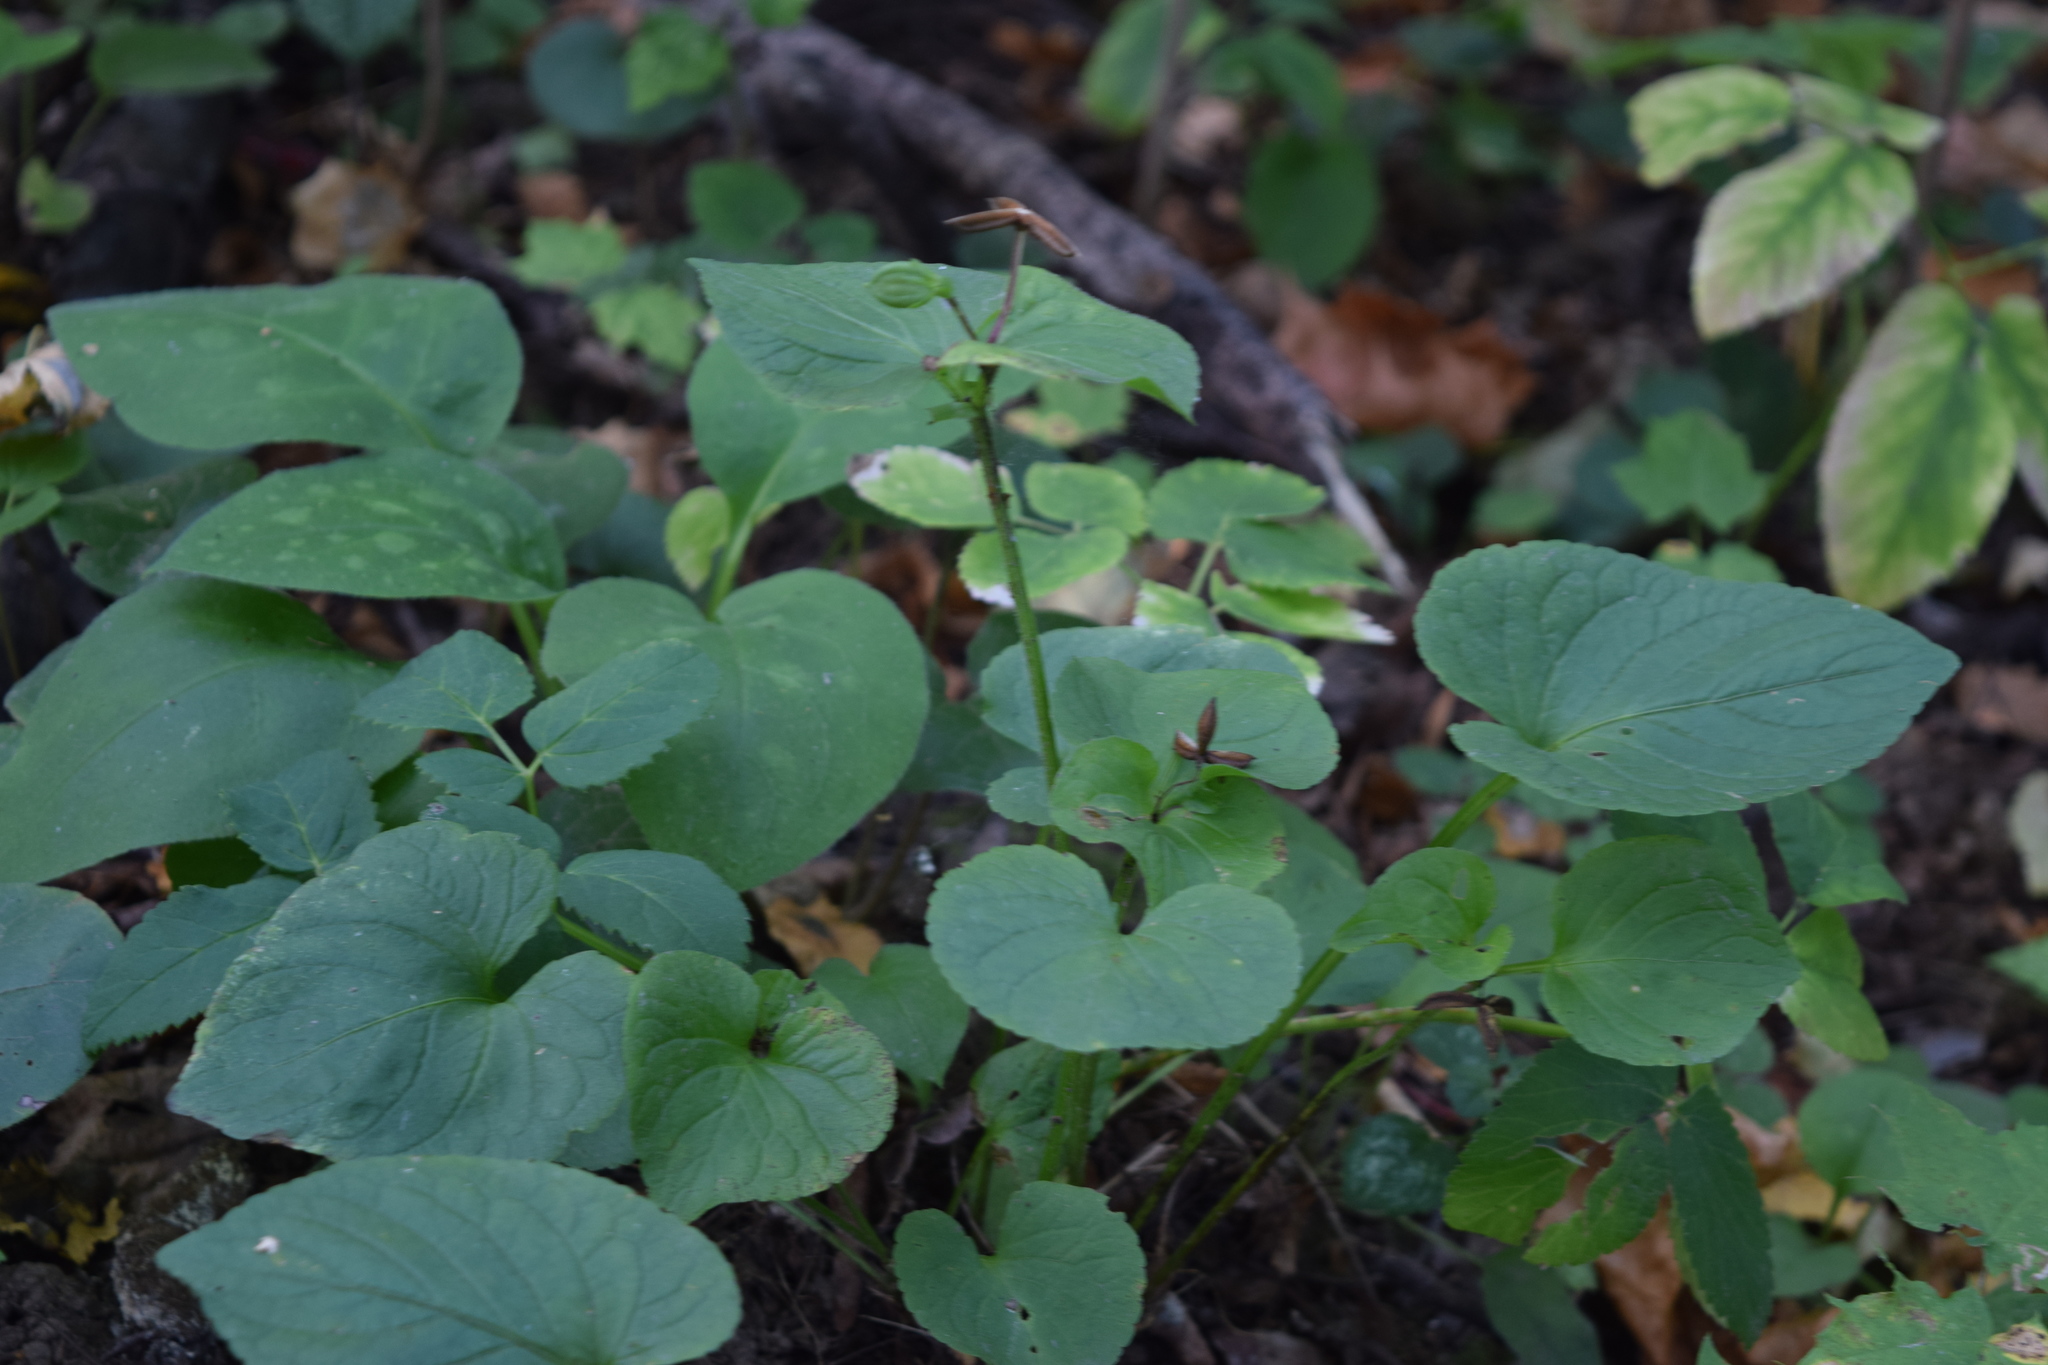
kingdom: Plantae
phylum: Tracheophyta
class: Magnoliopsida
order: Malpighiales
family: Violaceae
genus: Viola
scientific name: Viola mirabilis
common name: Wonder violet
